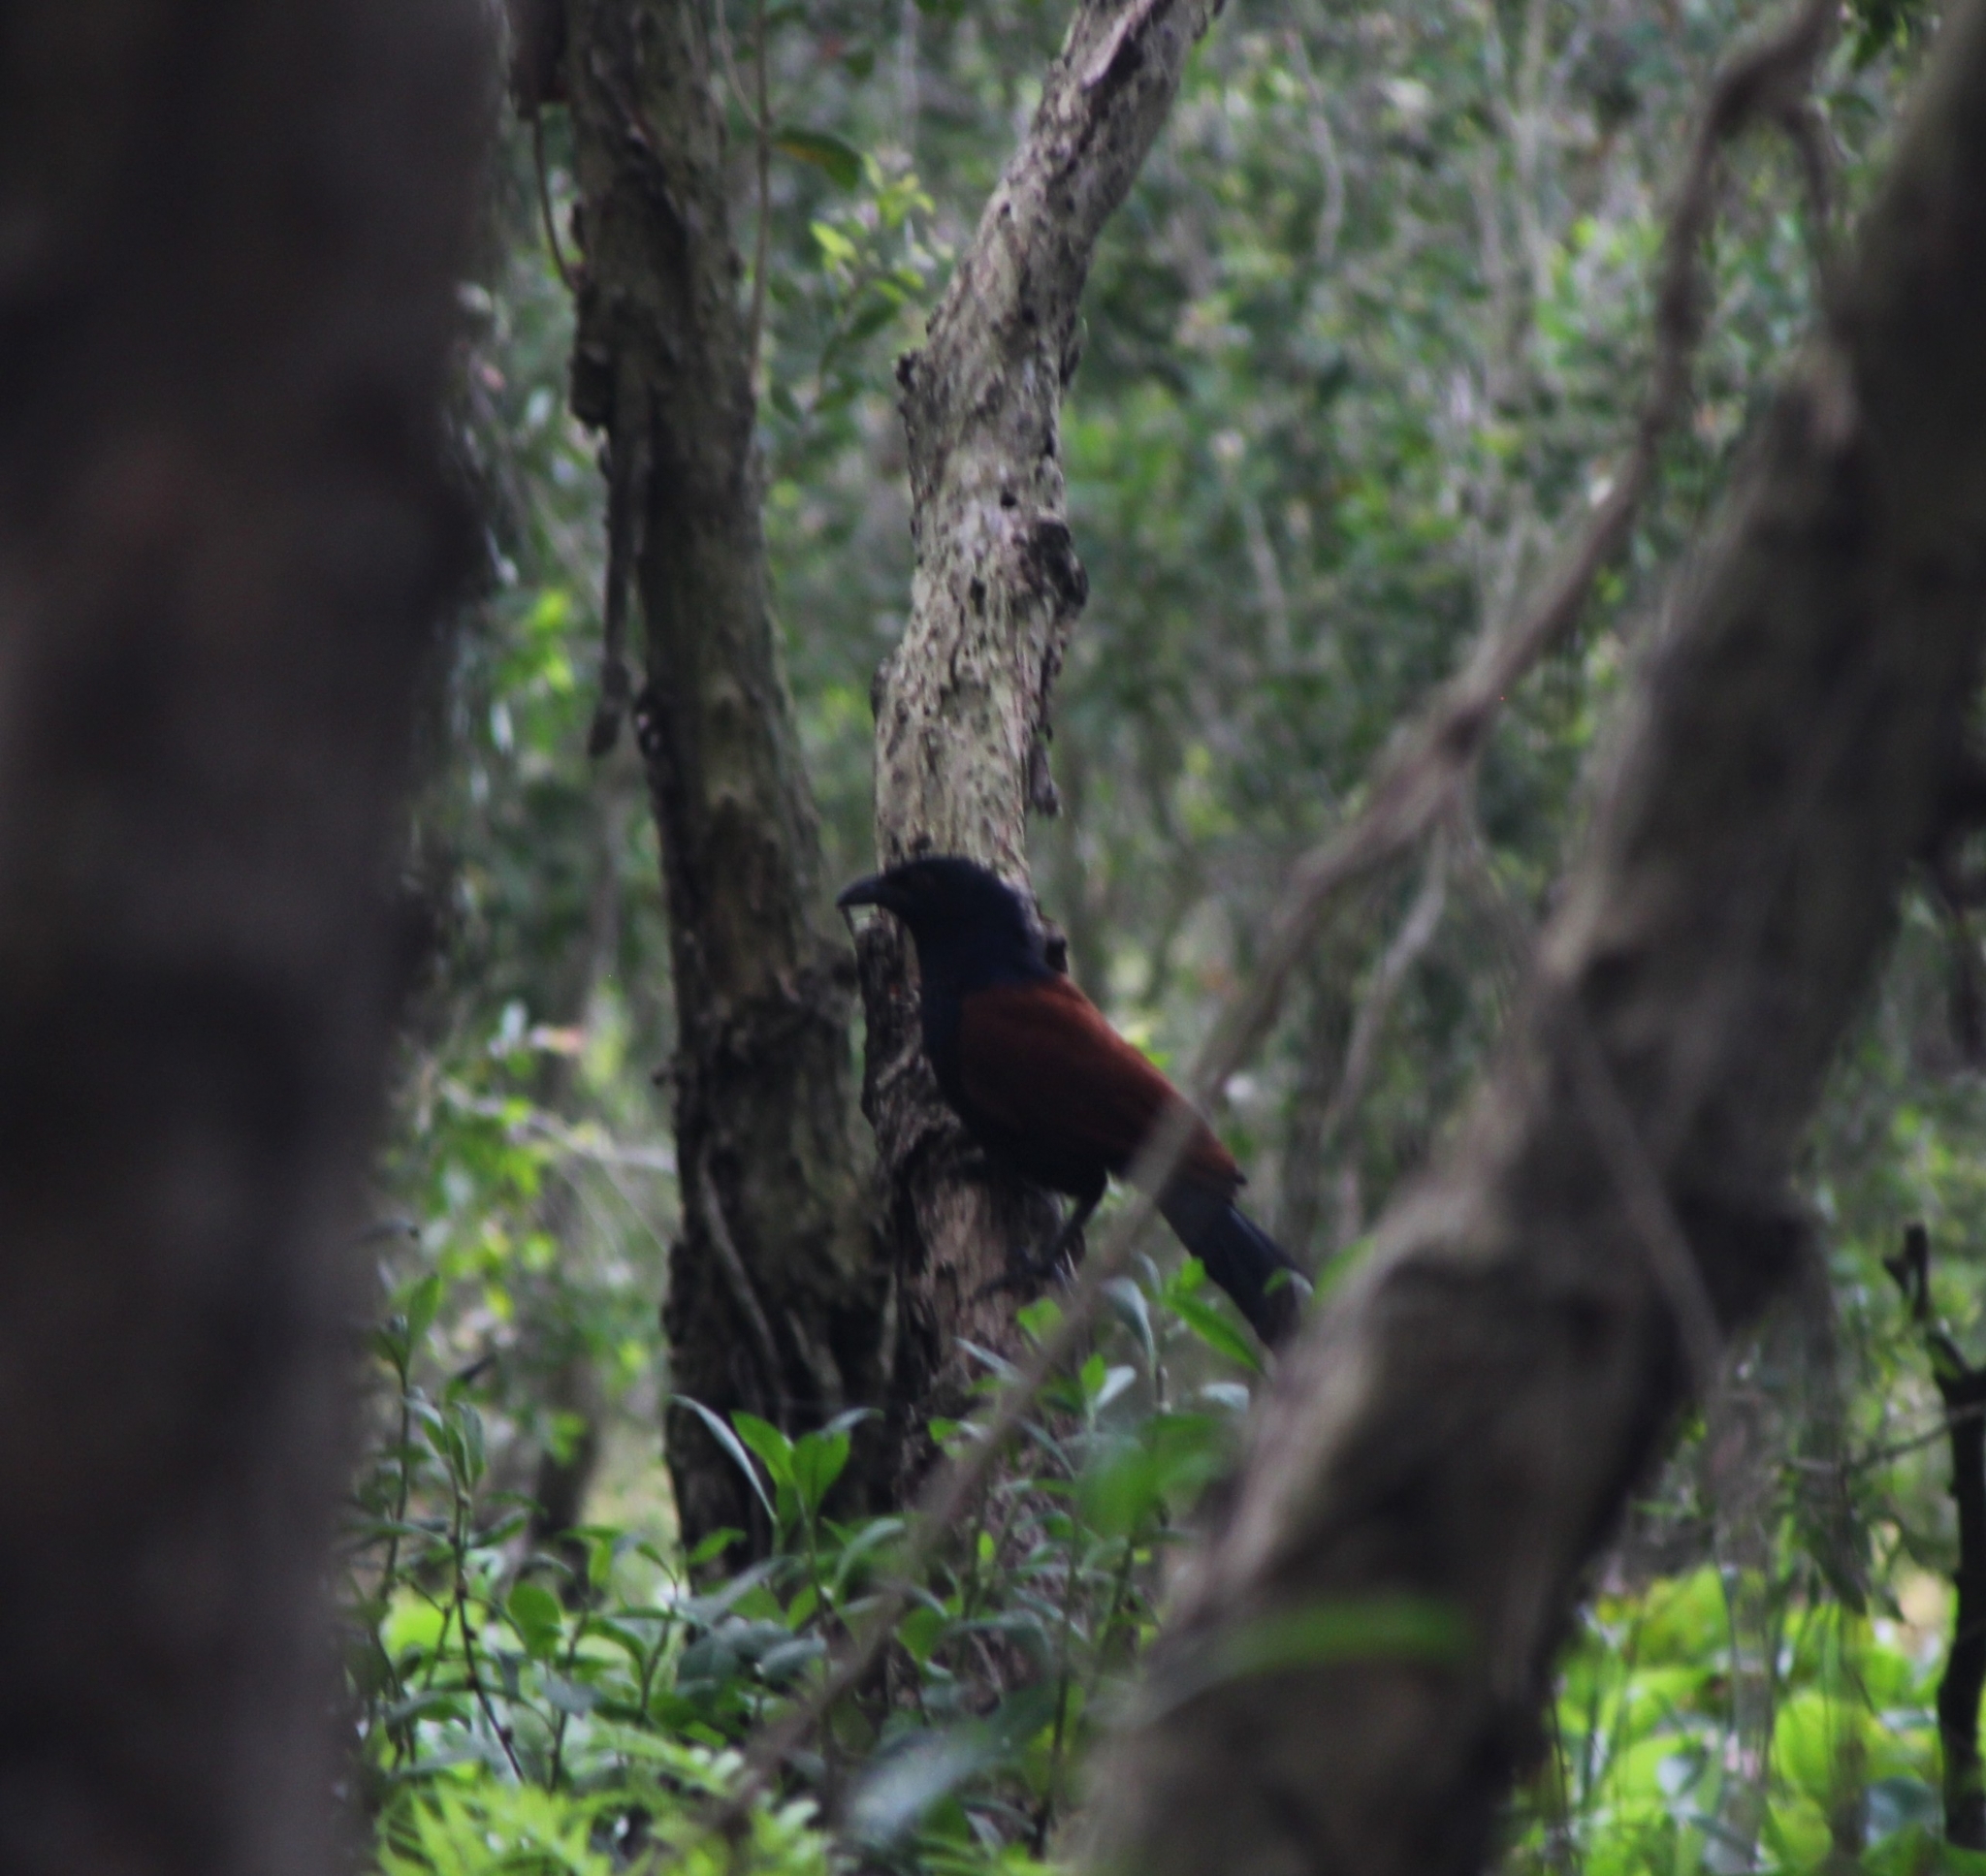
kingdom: Animalia
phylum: Chordata
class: Aves
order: Cuculiformes
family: Cuculidae
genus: Centropus
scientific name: Centropus sinensis
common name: Greater coucal
